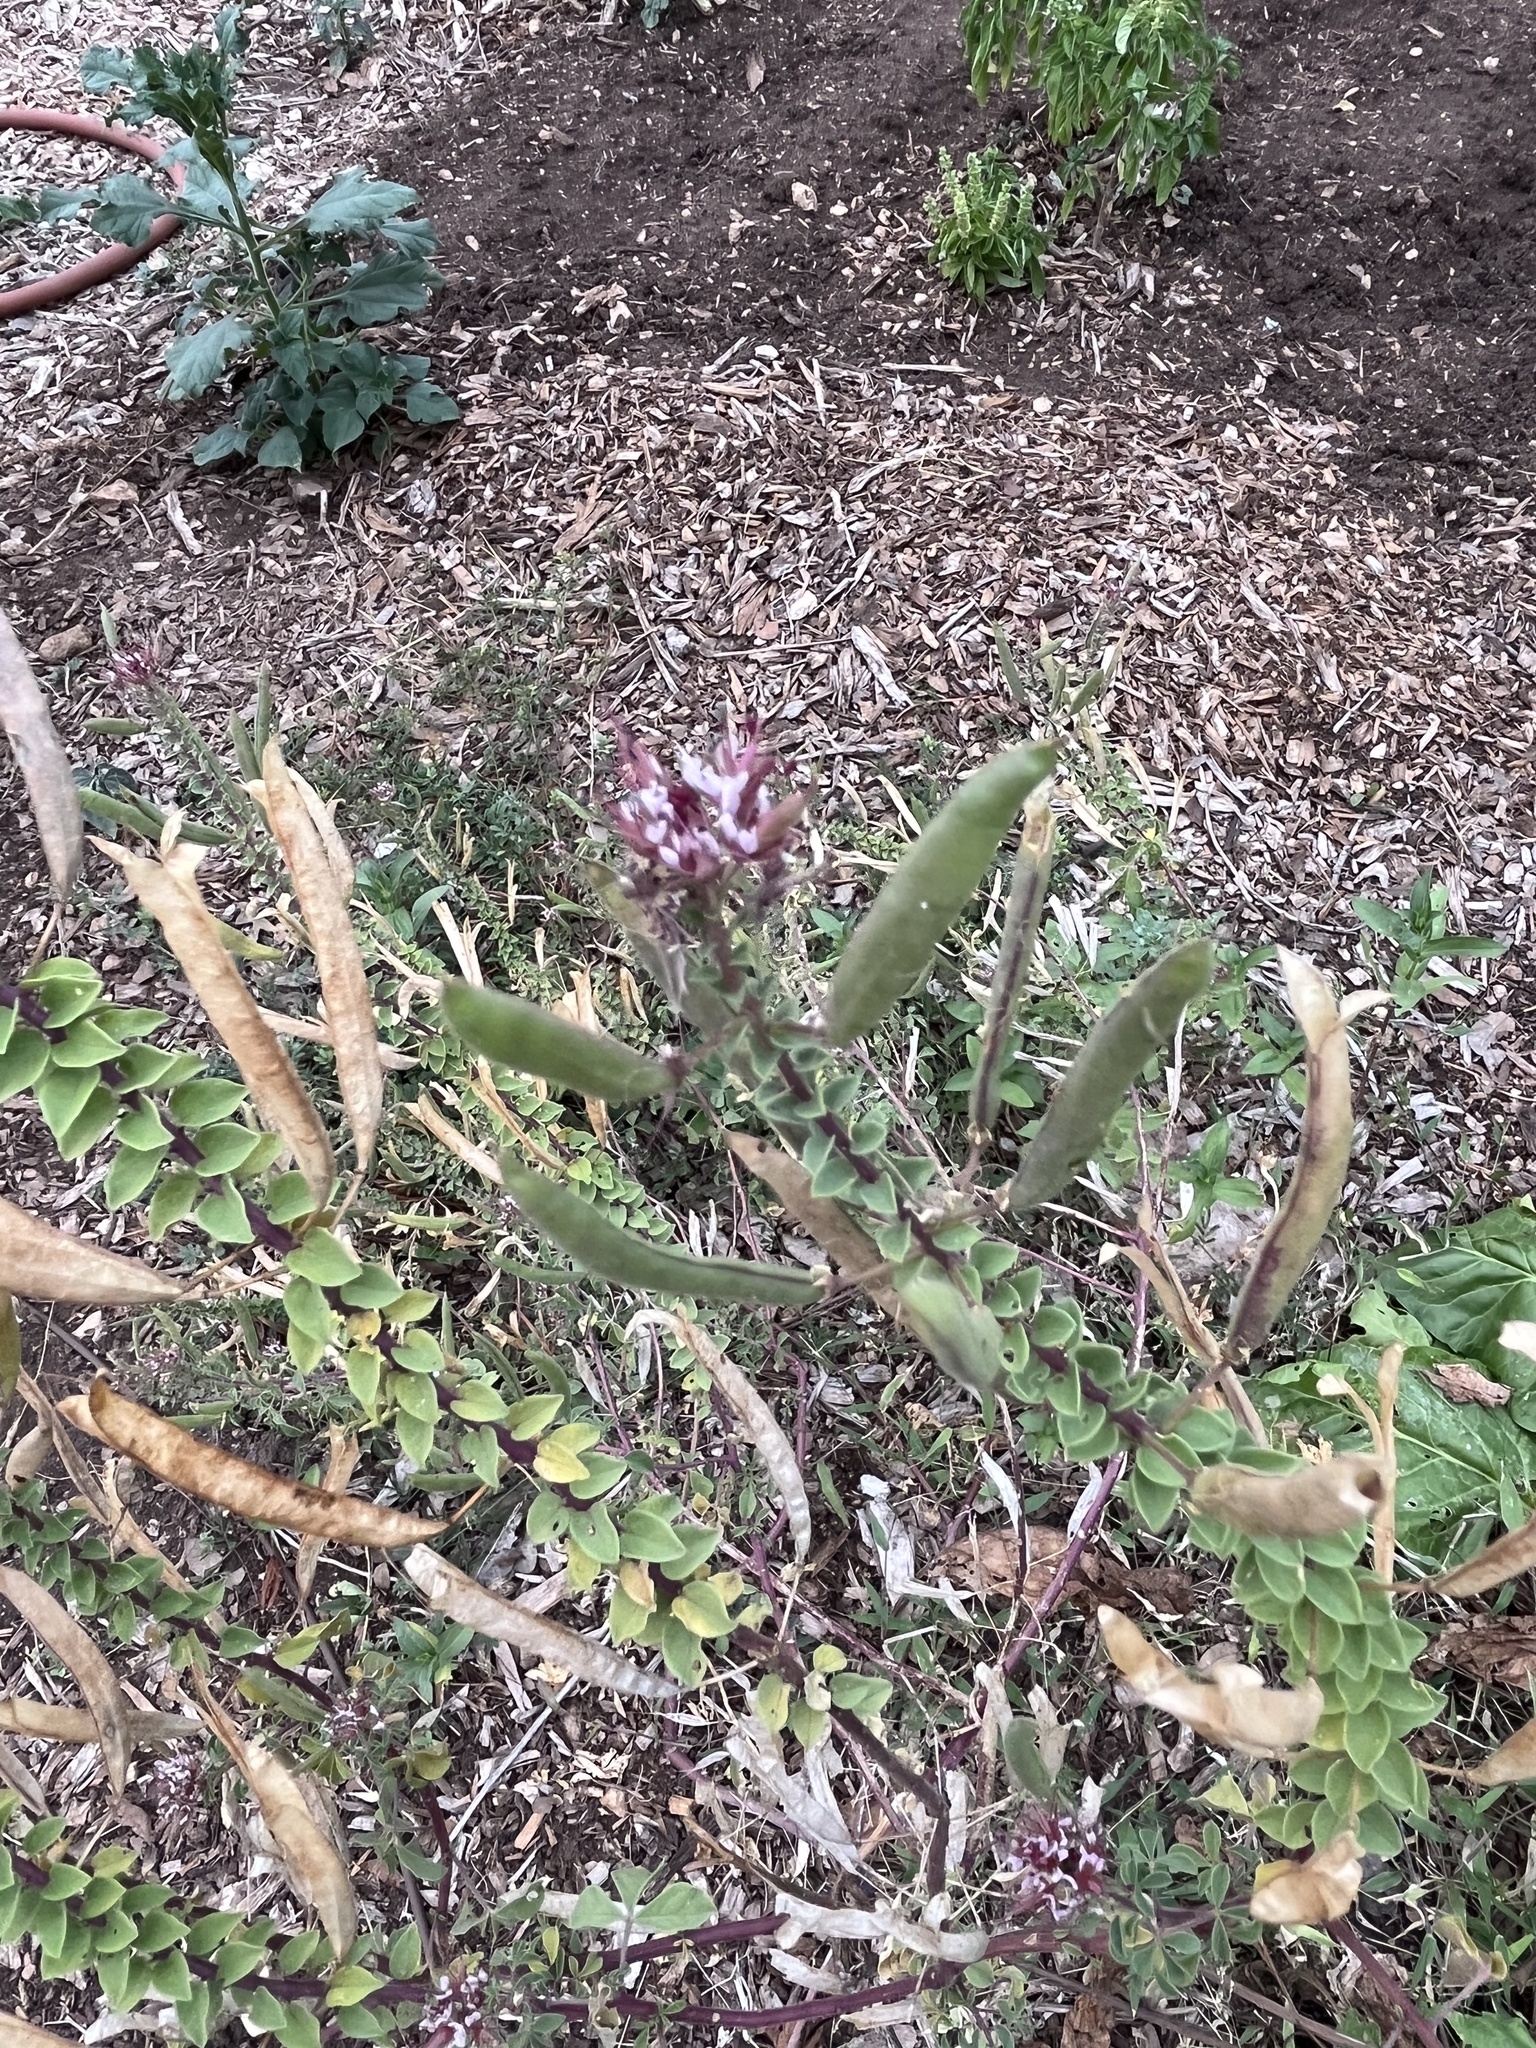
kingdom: Plantae
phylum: Tracheophyta
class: Magnoliopsida
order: Brassicales
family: Cleomaceae
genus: Polanisia
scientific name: Polanisia dodecandra
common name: Clammyweed
